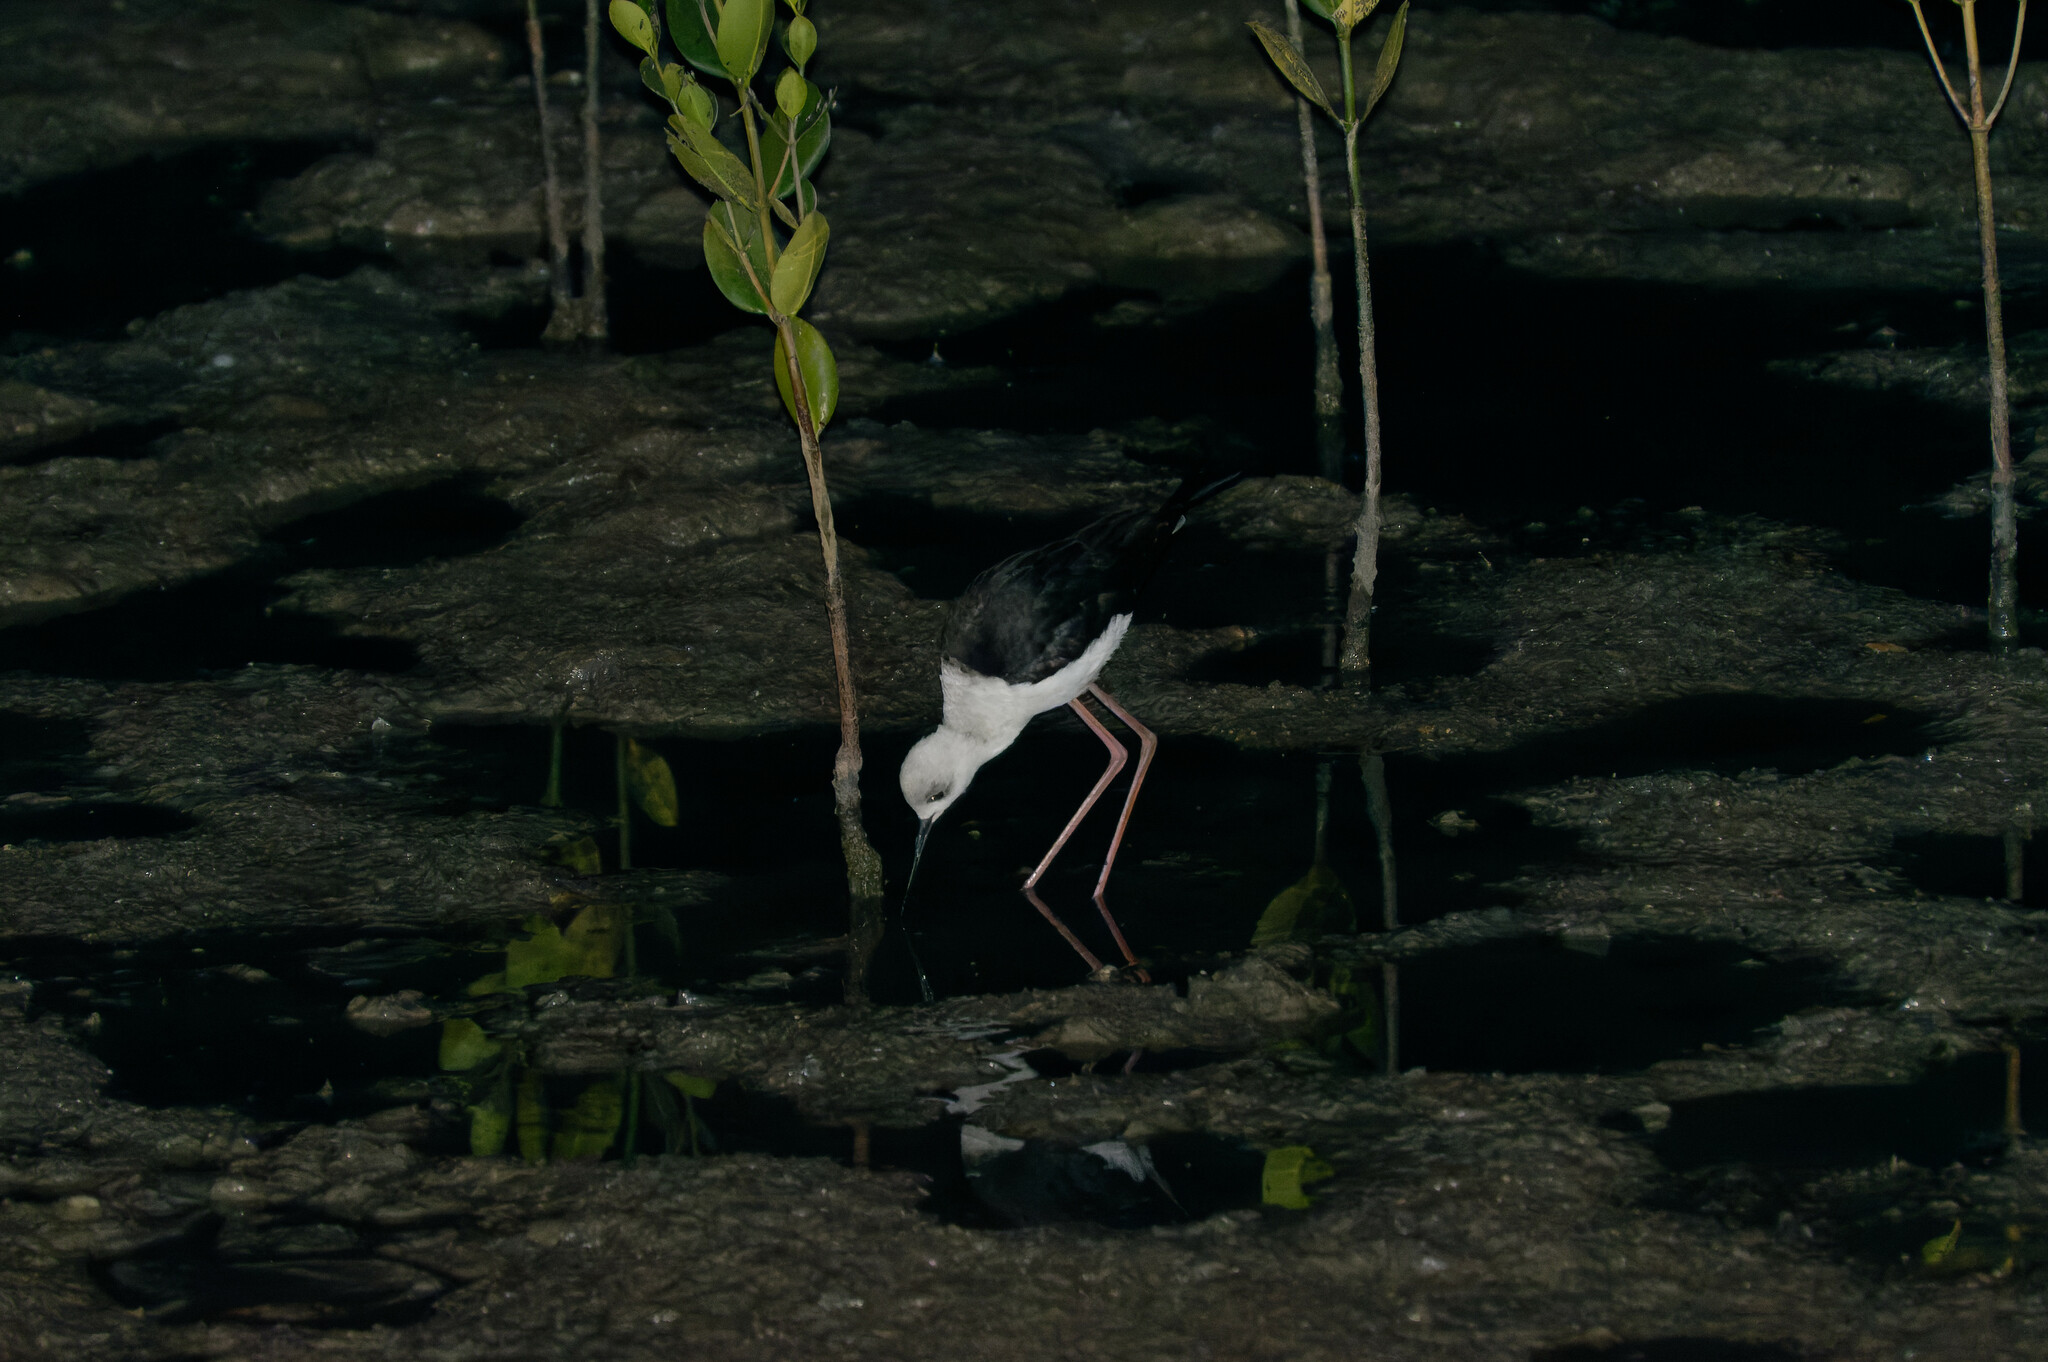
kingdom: Animalia
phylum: Chordata
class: Aves
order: Charadriiformes
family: Recurvirostridae
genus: Himantopus
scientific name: Himantopus leucocephalus
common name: White-headed stilt
